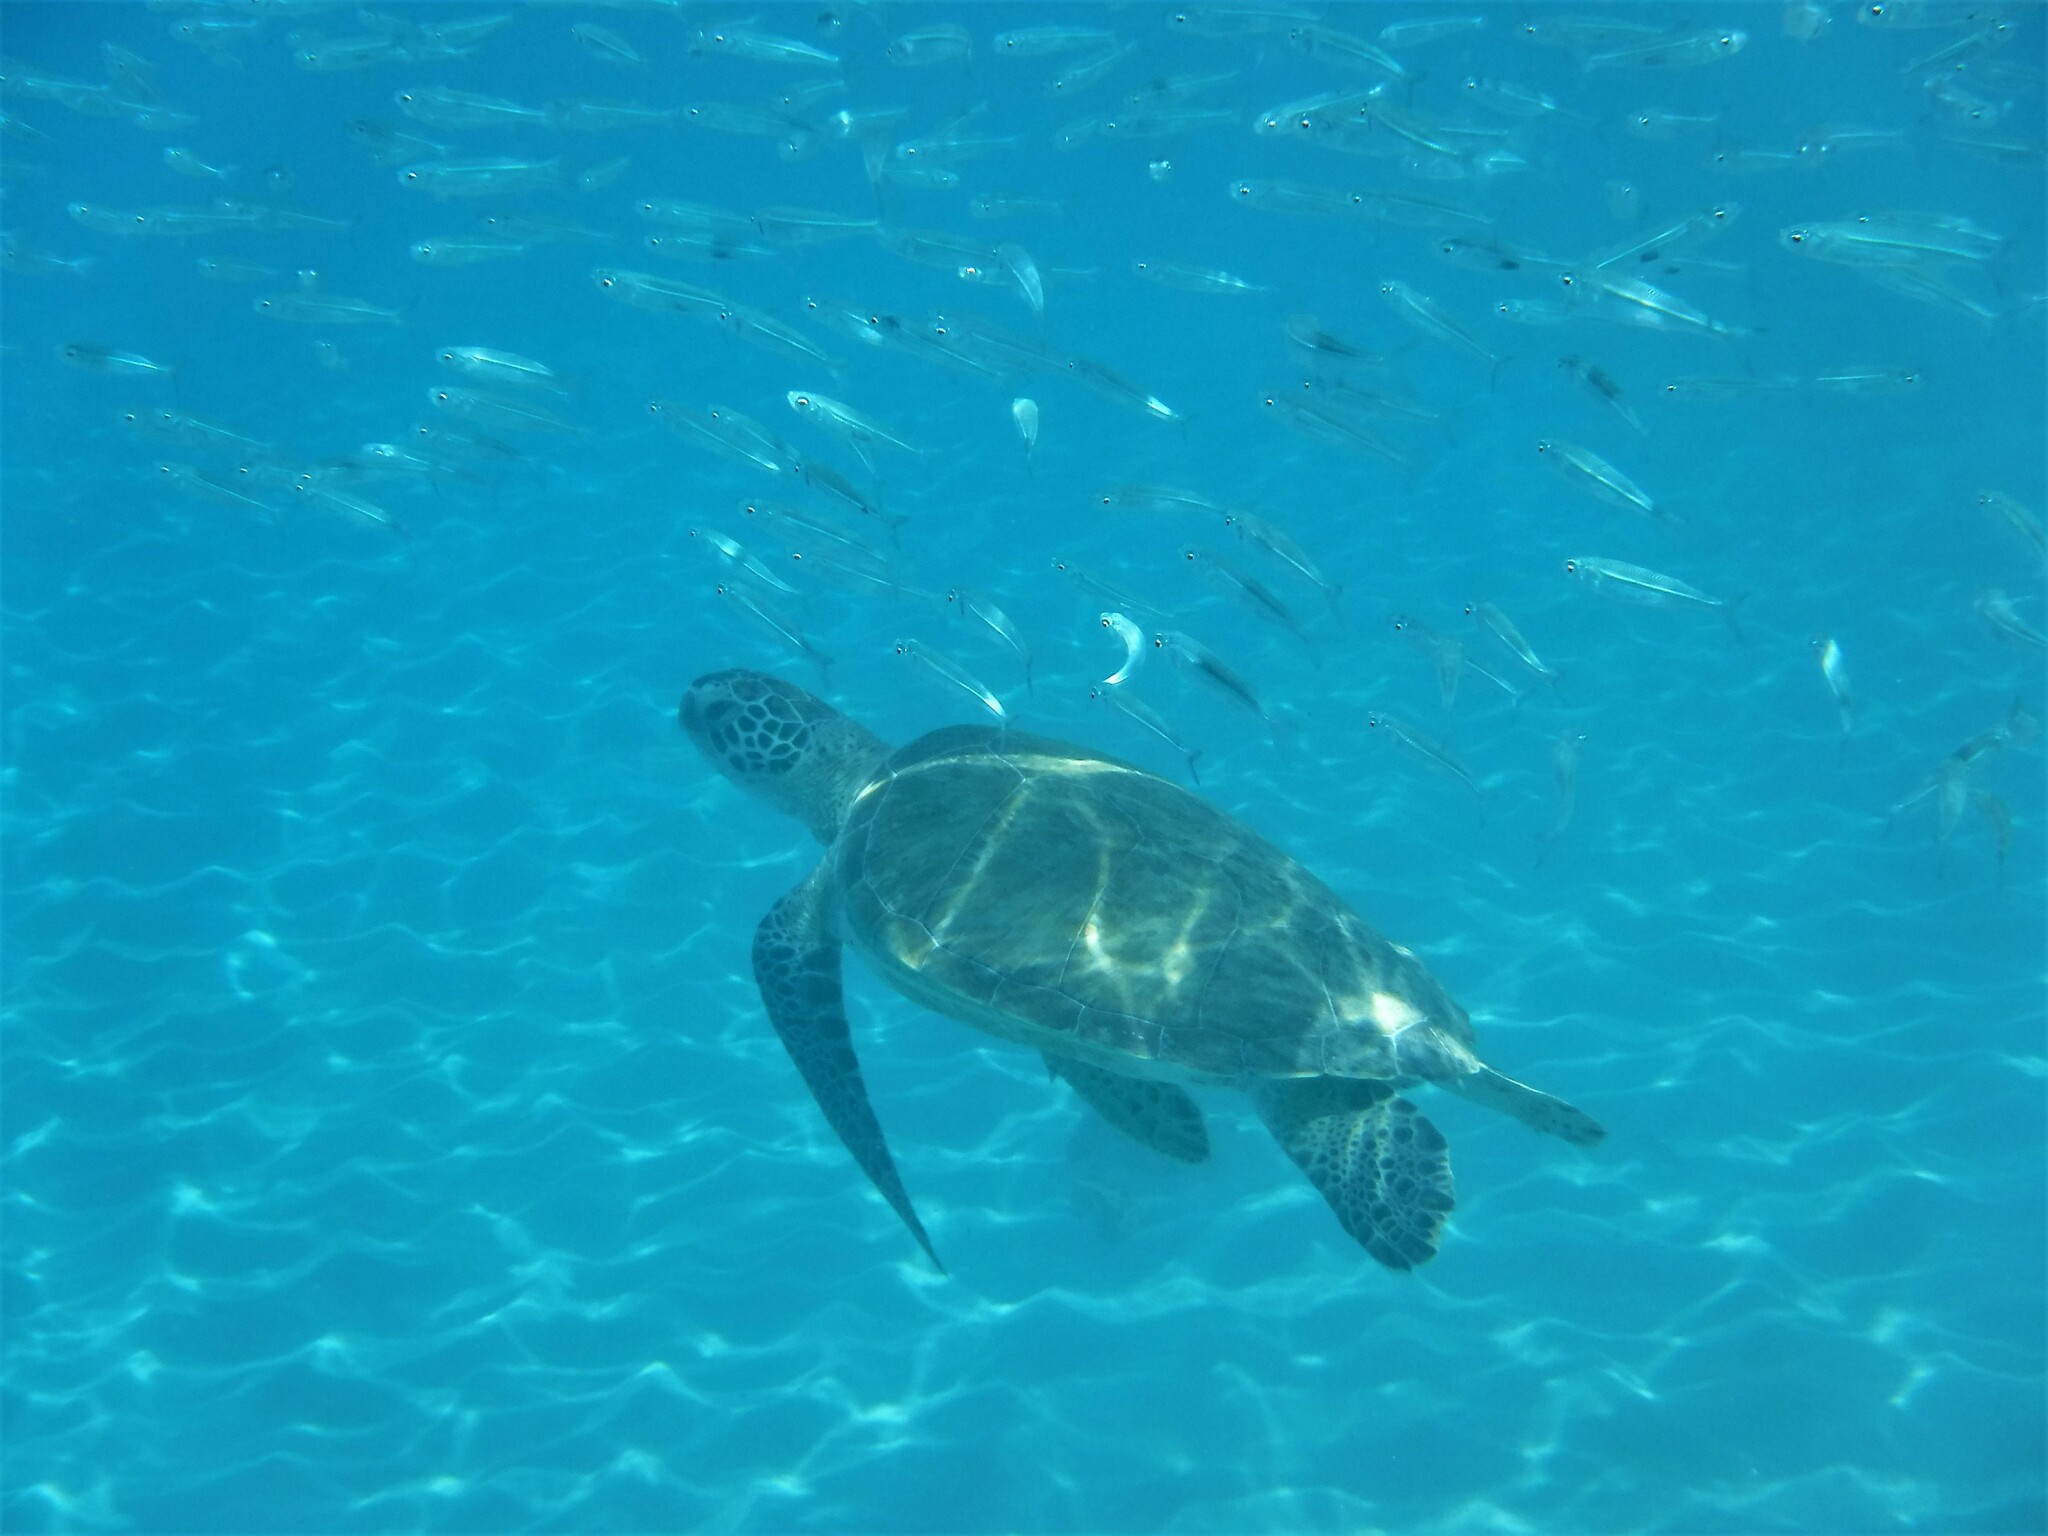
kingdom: Animalia
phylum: Chordata
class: Testudines
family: Cheloniidae
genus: Chelonia
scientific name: Chelonia mydas
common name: Green turtle
